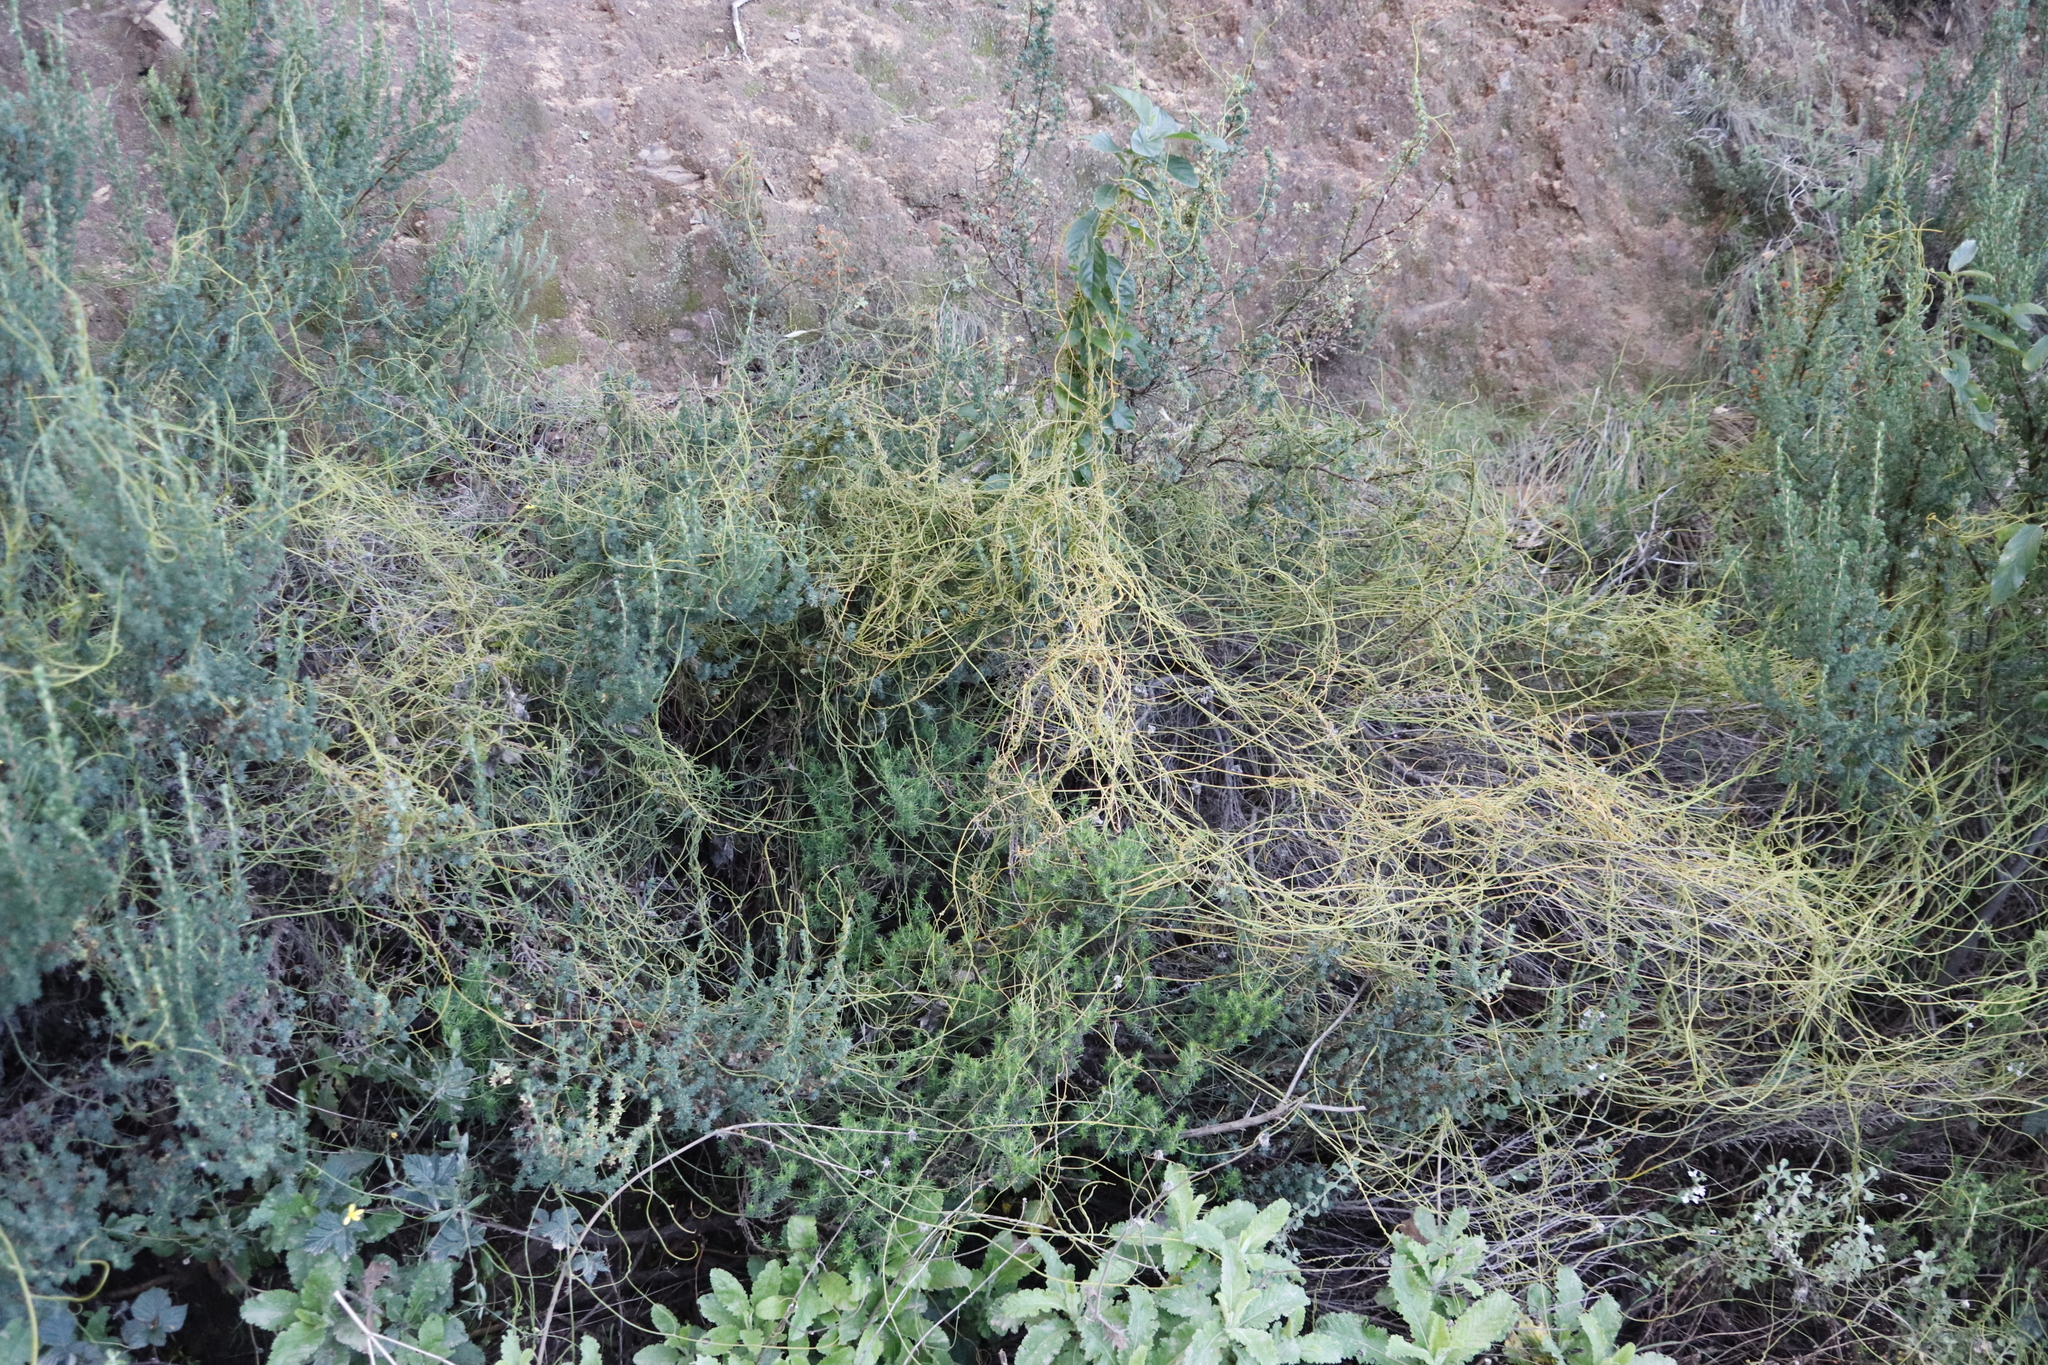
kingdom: Plantae
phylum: Tracheophyta
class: Magnoliopsida
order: Laurales
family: Lauraceae
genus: Cassytha
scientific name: Cassytha ciliolata
